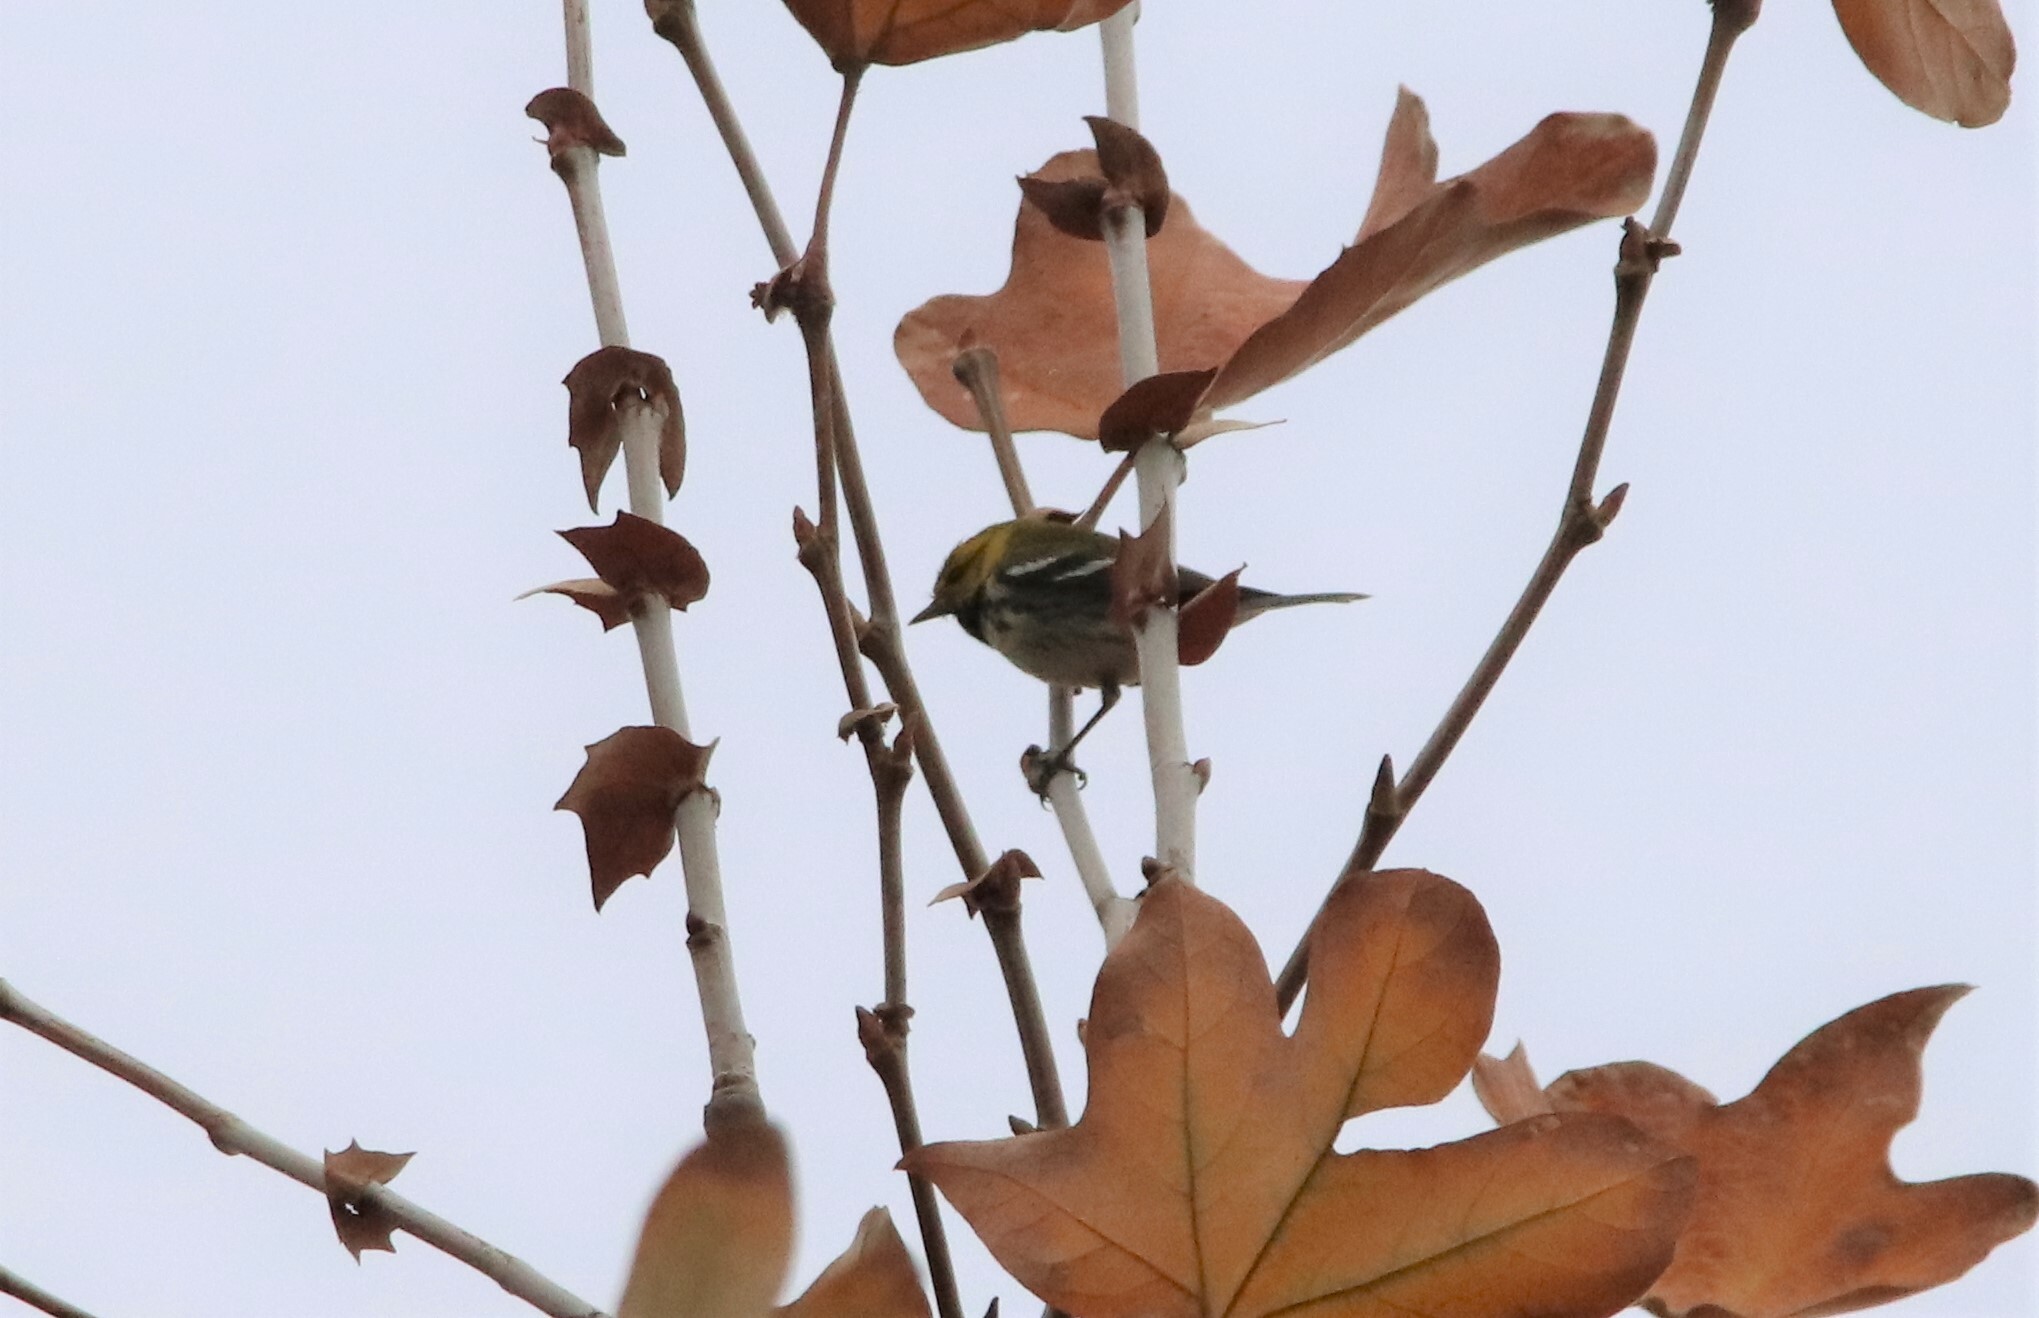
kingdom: Animalia
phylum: Chordata
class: Aves
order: Passeriformes
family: Parulidae
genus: Setophaga
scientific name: Setophaga virens
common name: Black-throated green warbler
